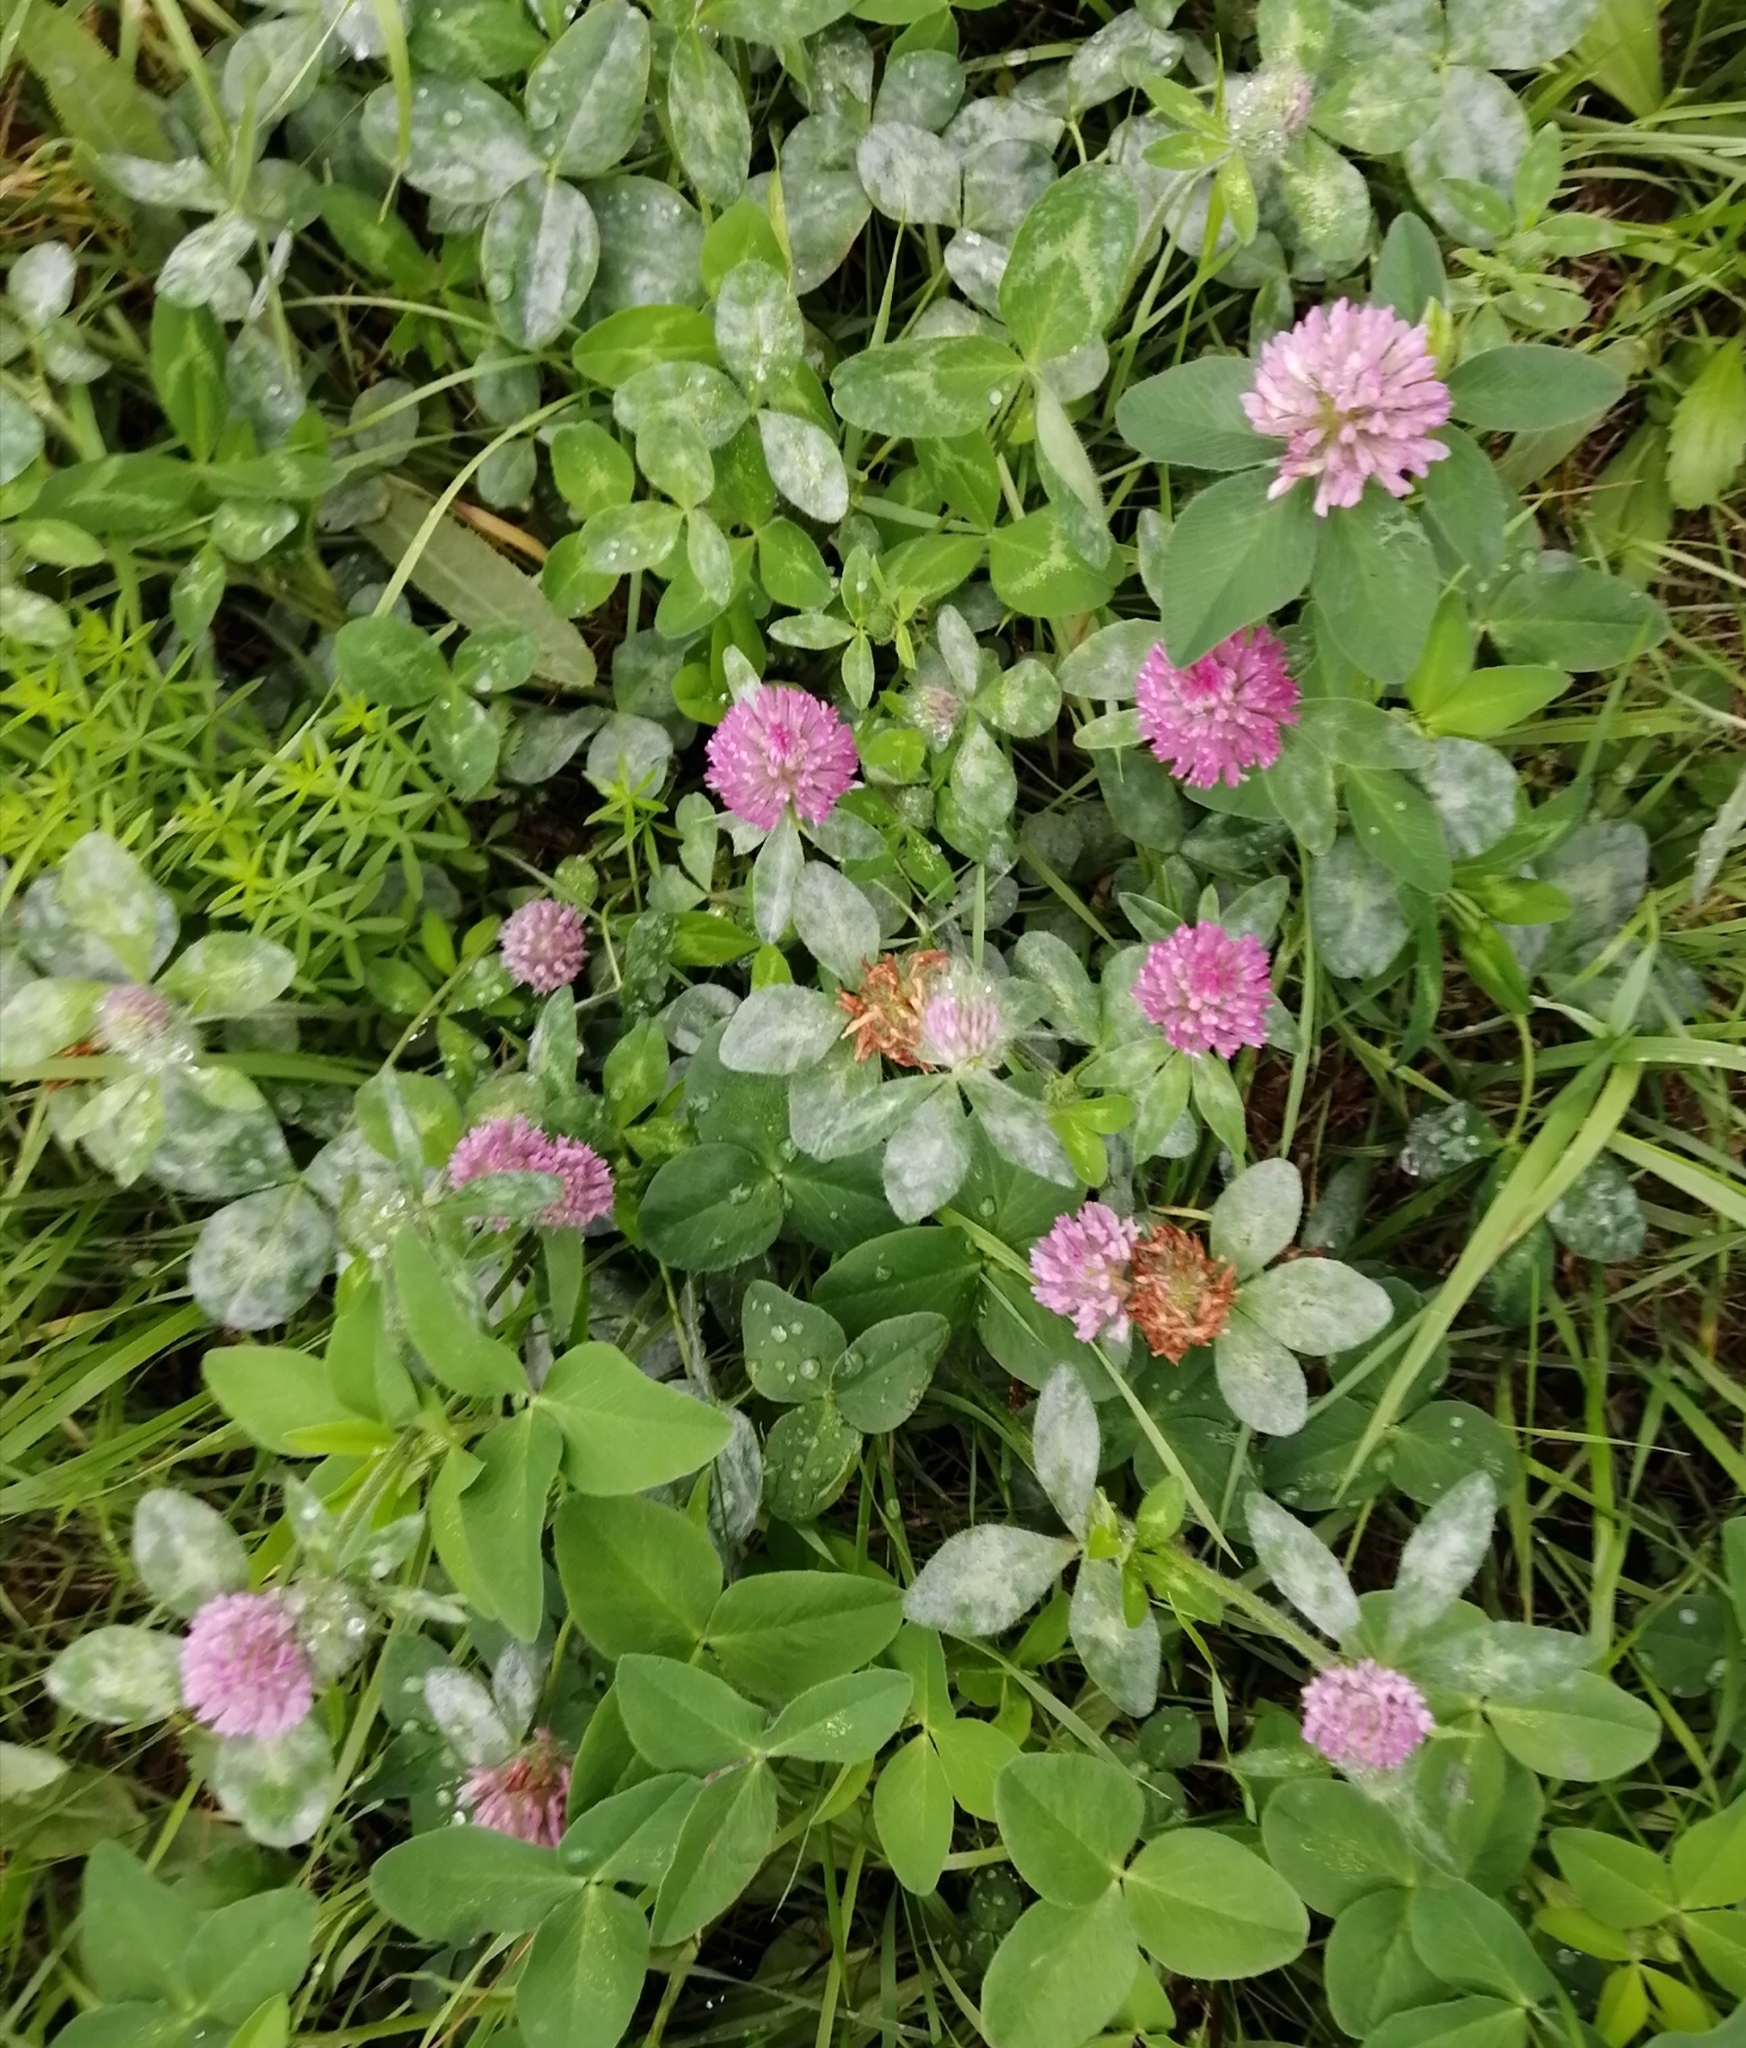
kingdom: Plantae
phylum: Tracheophyta
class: Magnoliopsida
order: Fabales
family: Fabaceae
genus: Trifolium
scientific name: Trifolium pratense
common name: Red clover
